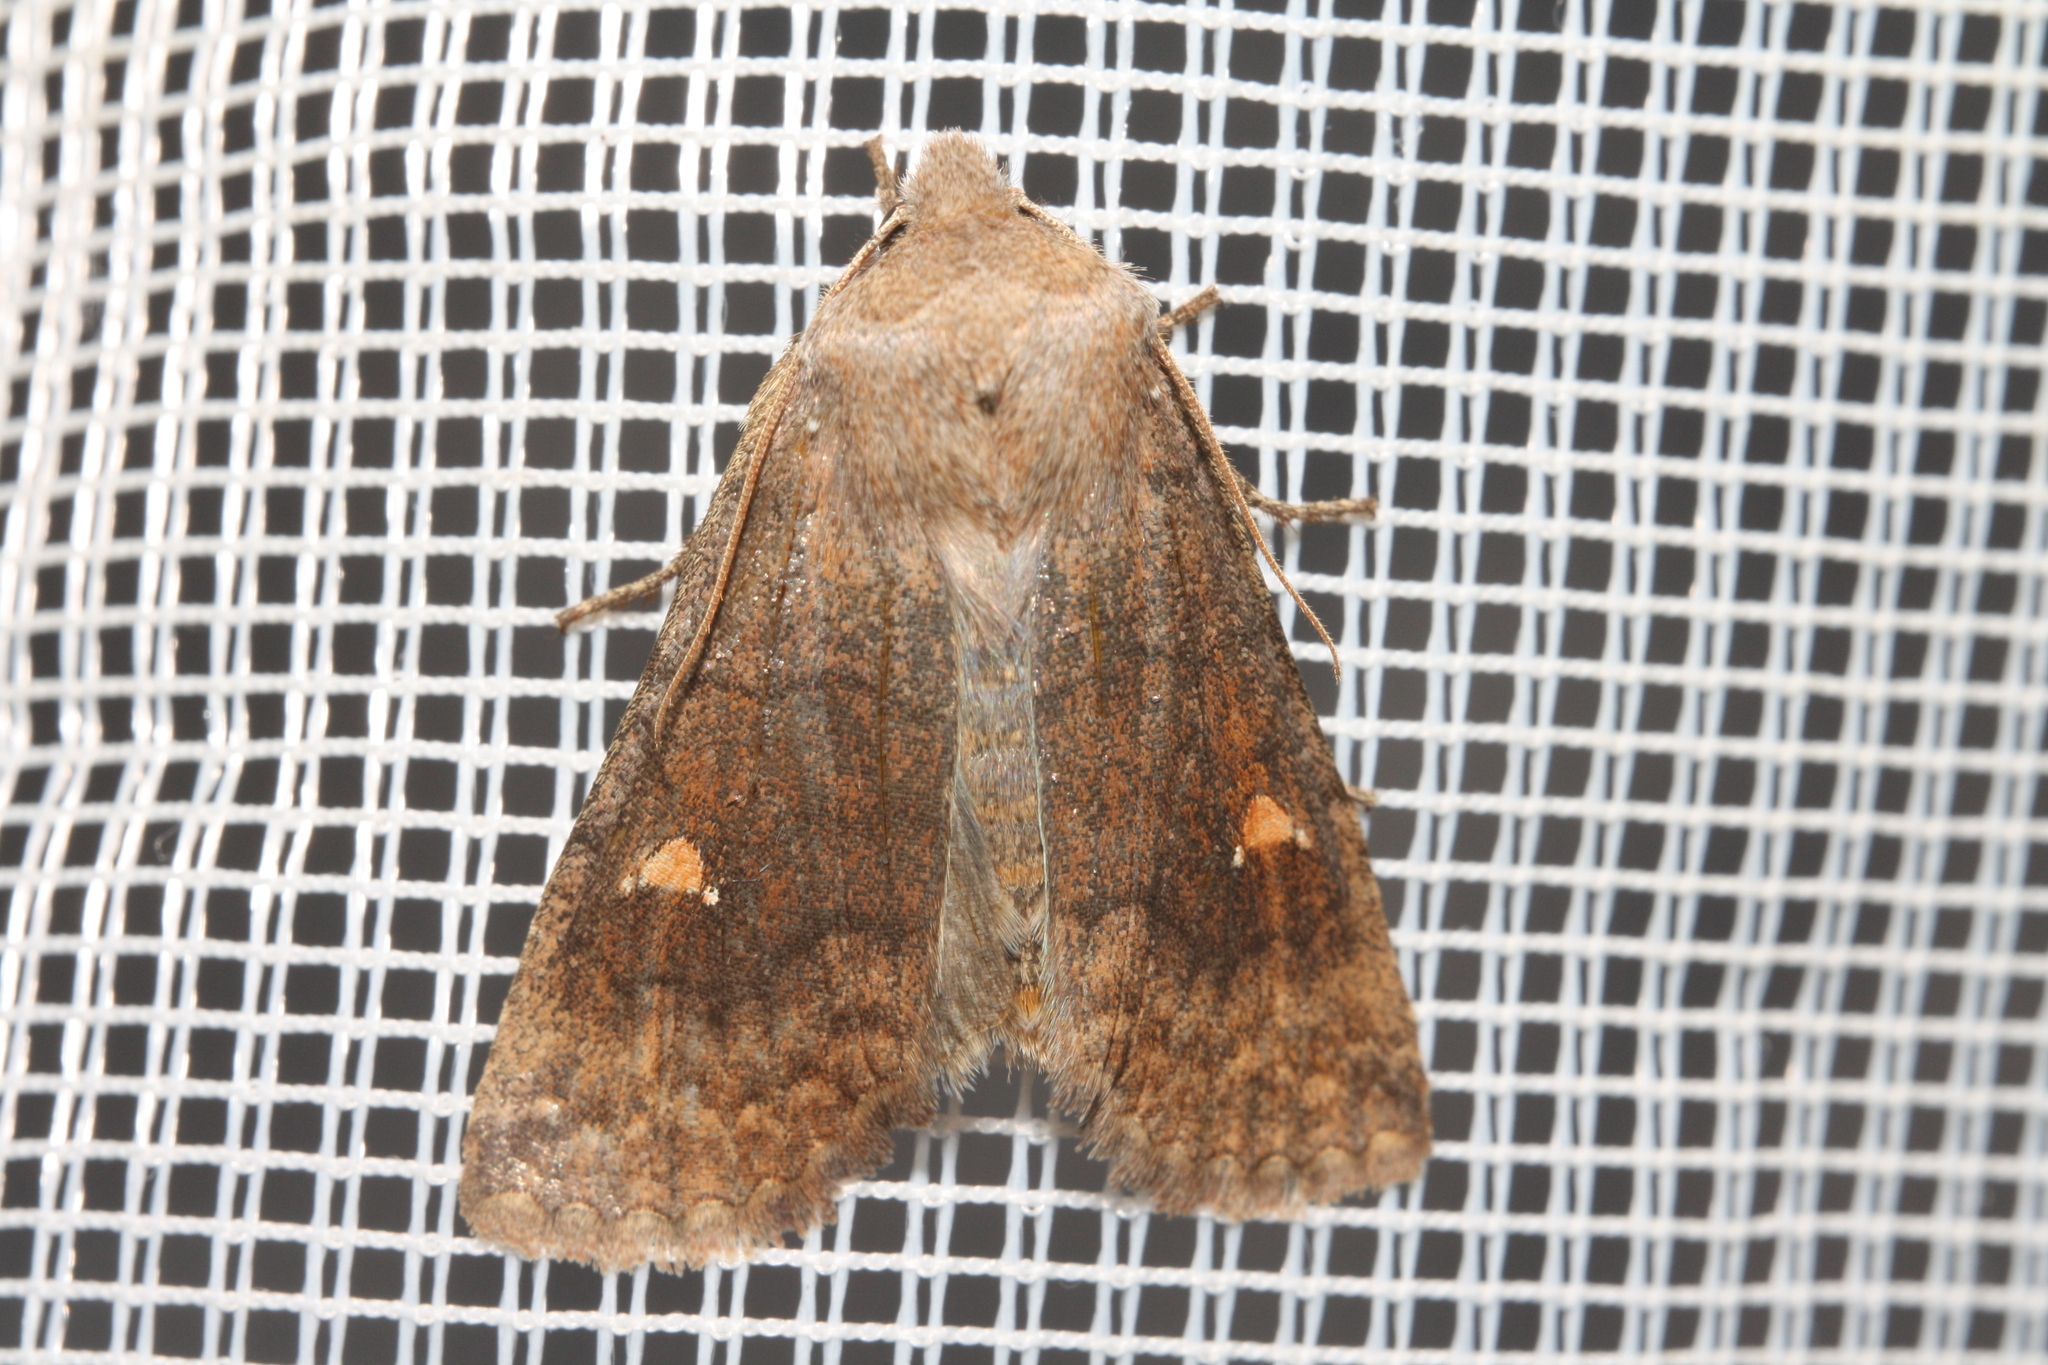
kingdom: Animalia
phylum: Arthropoda
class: Insecta
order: Lepidoptera
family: Noctuidae
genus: Eupsilia
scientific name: Eupsilia transversa
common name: Satellite
